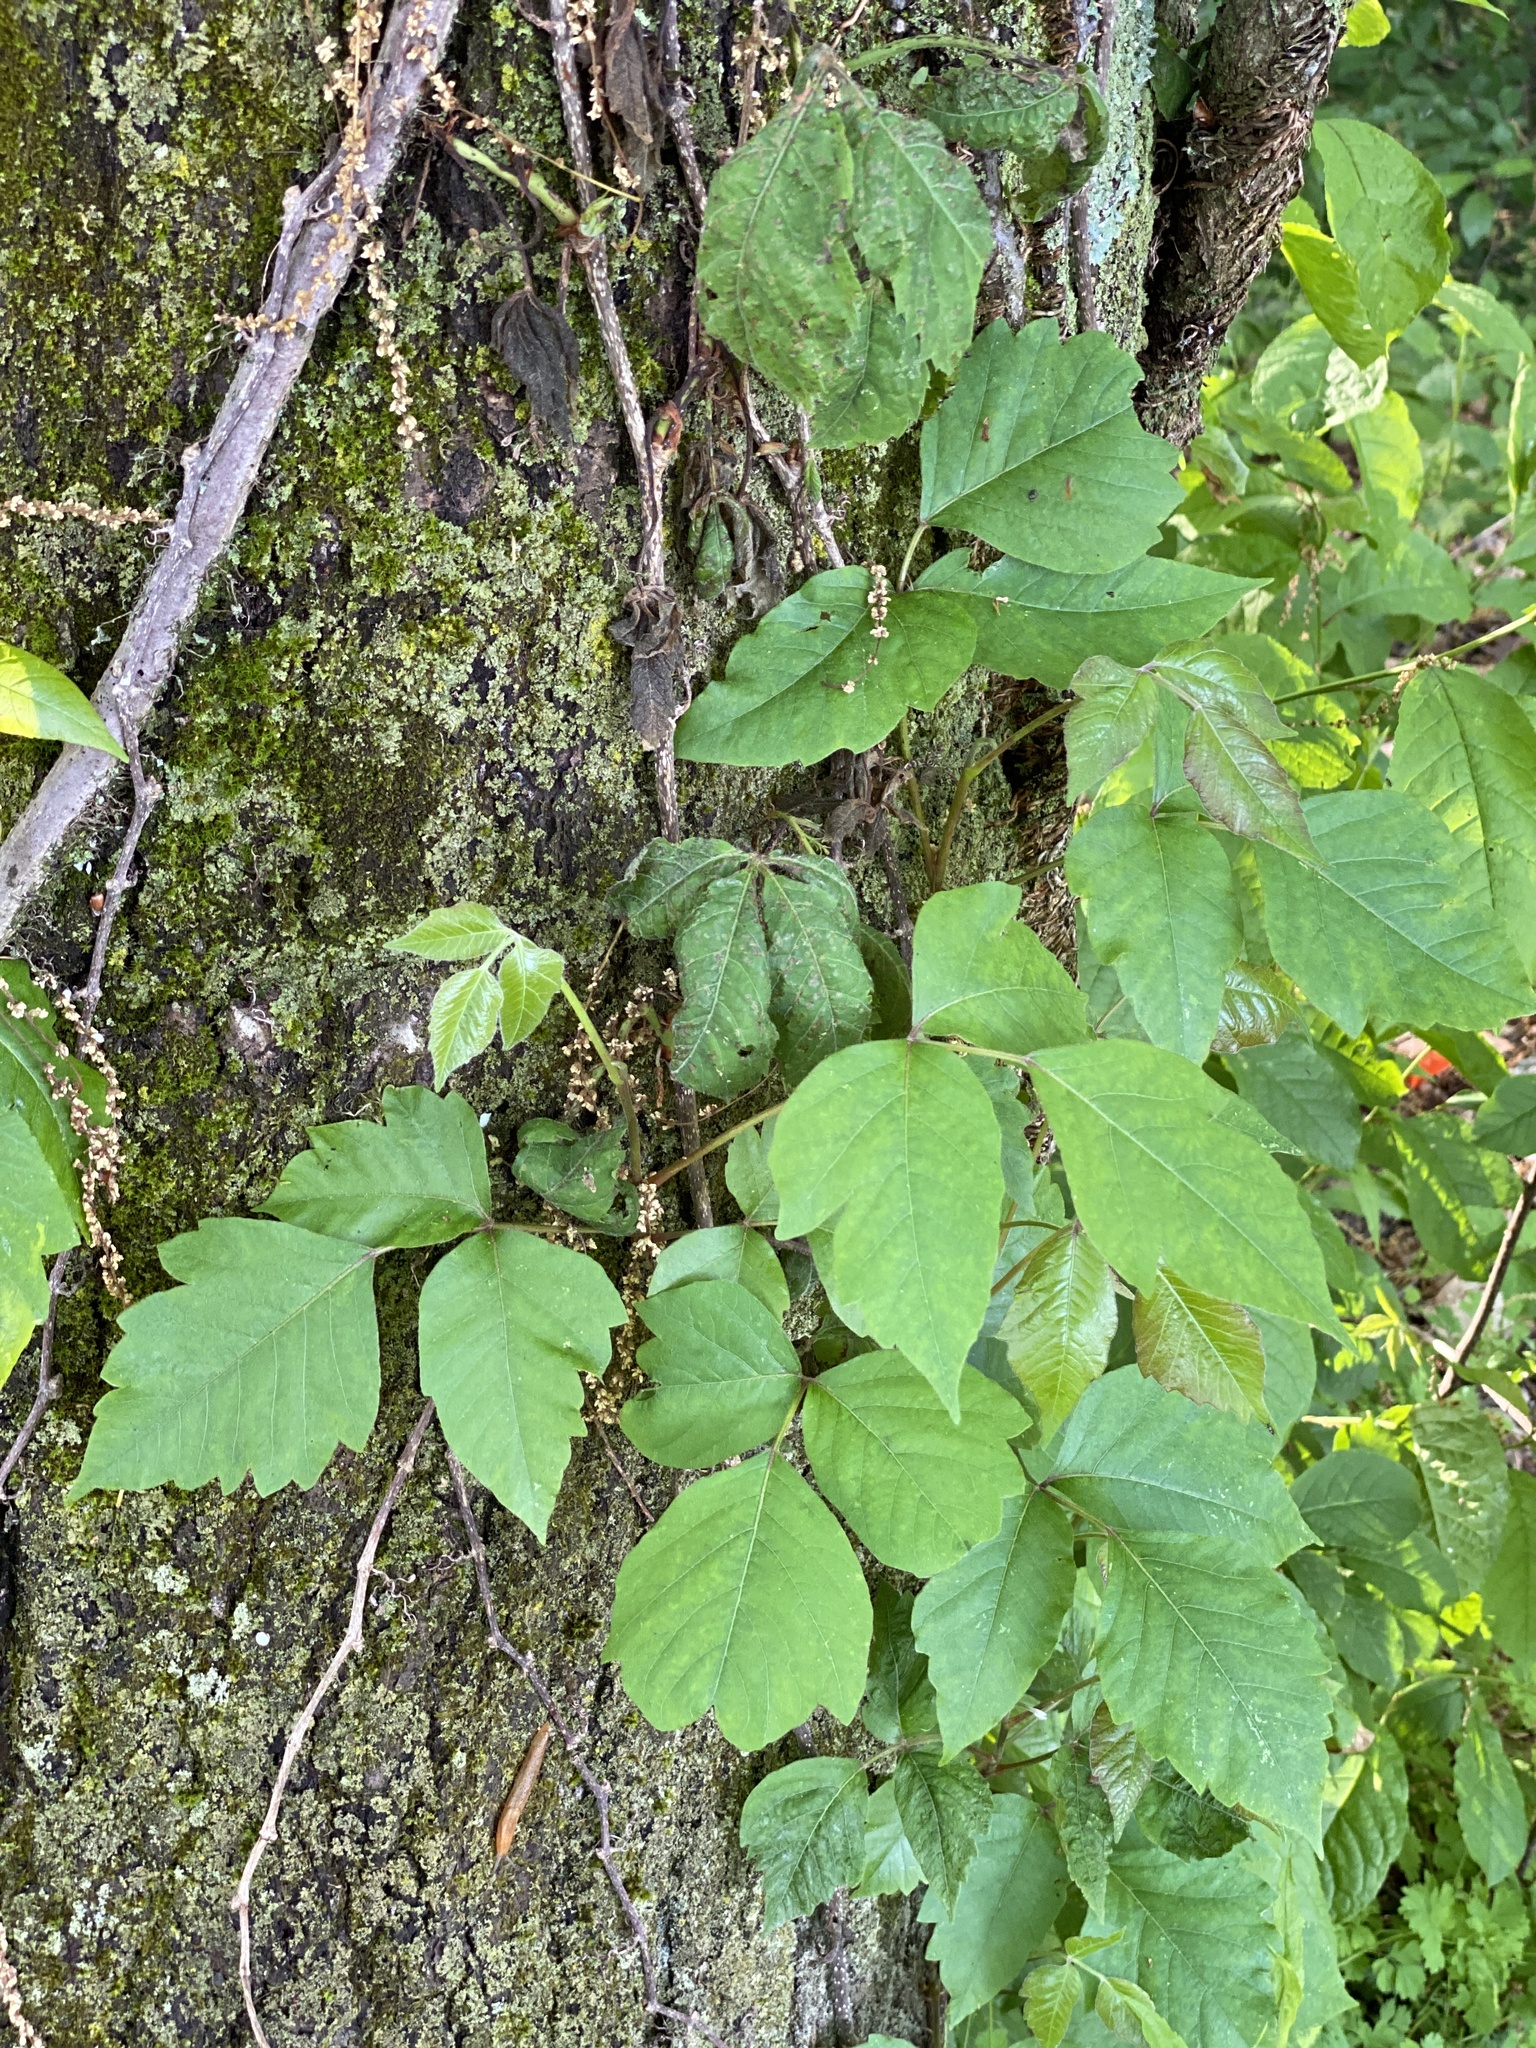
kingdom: Plantae
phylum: Tracheophyta
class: Magnoliopsida
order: Sapindales
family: Anacardiaceae
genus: Toxicodendron
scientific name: Toxicodendron radicans
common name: Poison ivy
